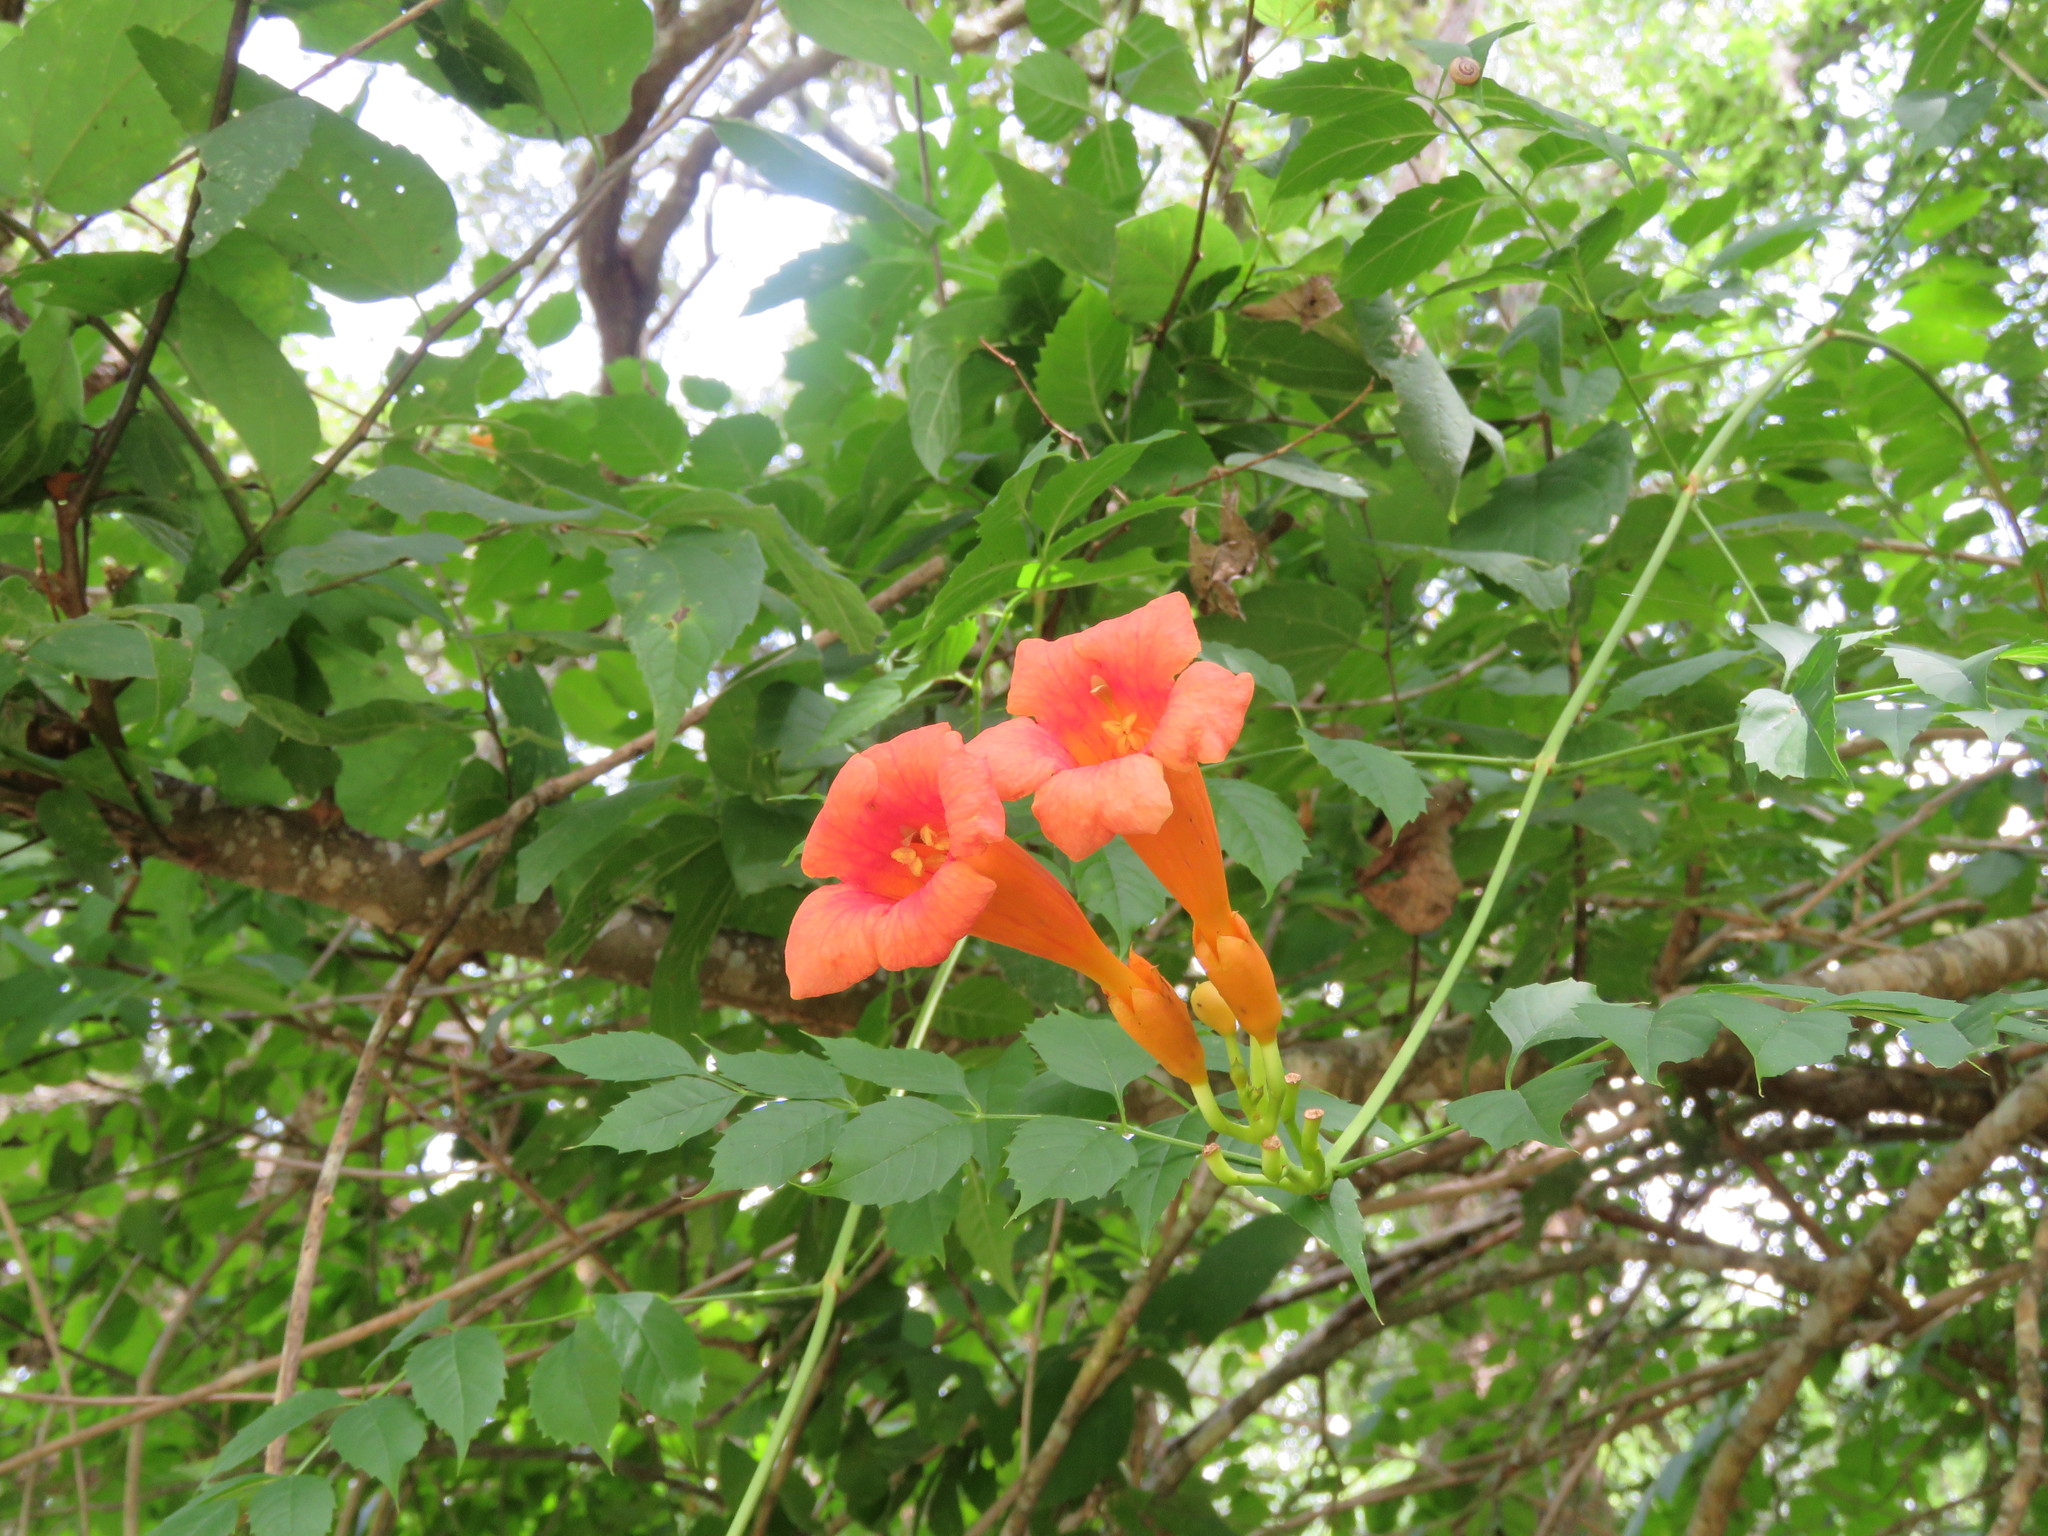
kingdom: Plantae
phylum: Tracheophyta
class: Magnoliopsida
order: Lamiales
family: Bignoniaceae
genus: Campsis
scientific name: Campsis radicans
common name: Trumpet-creeper
